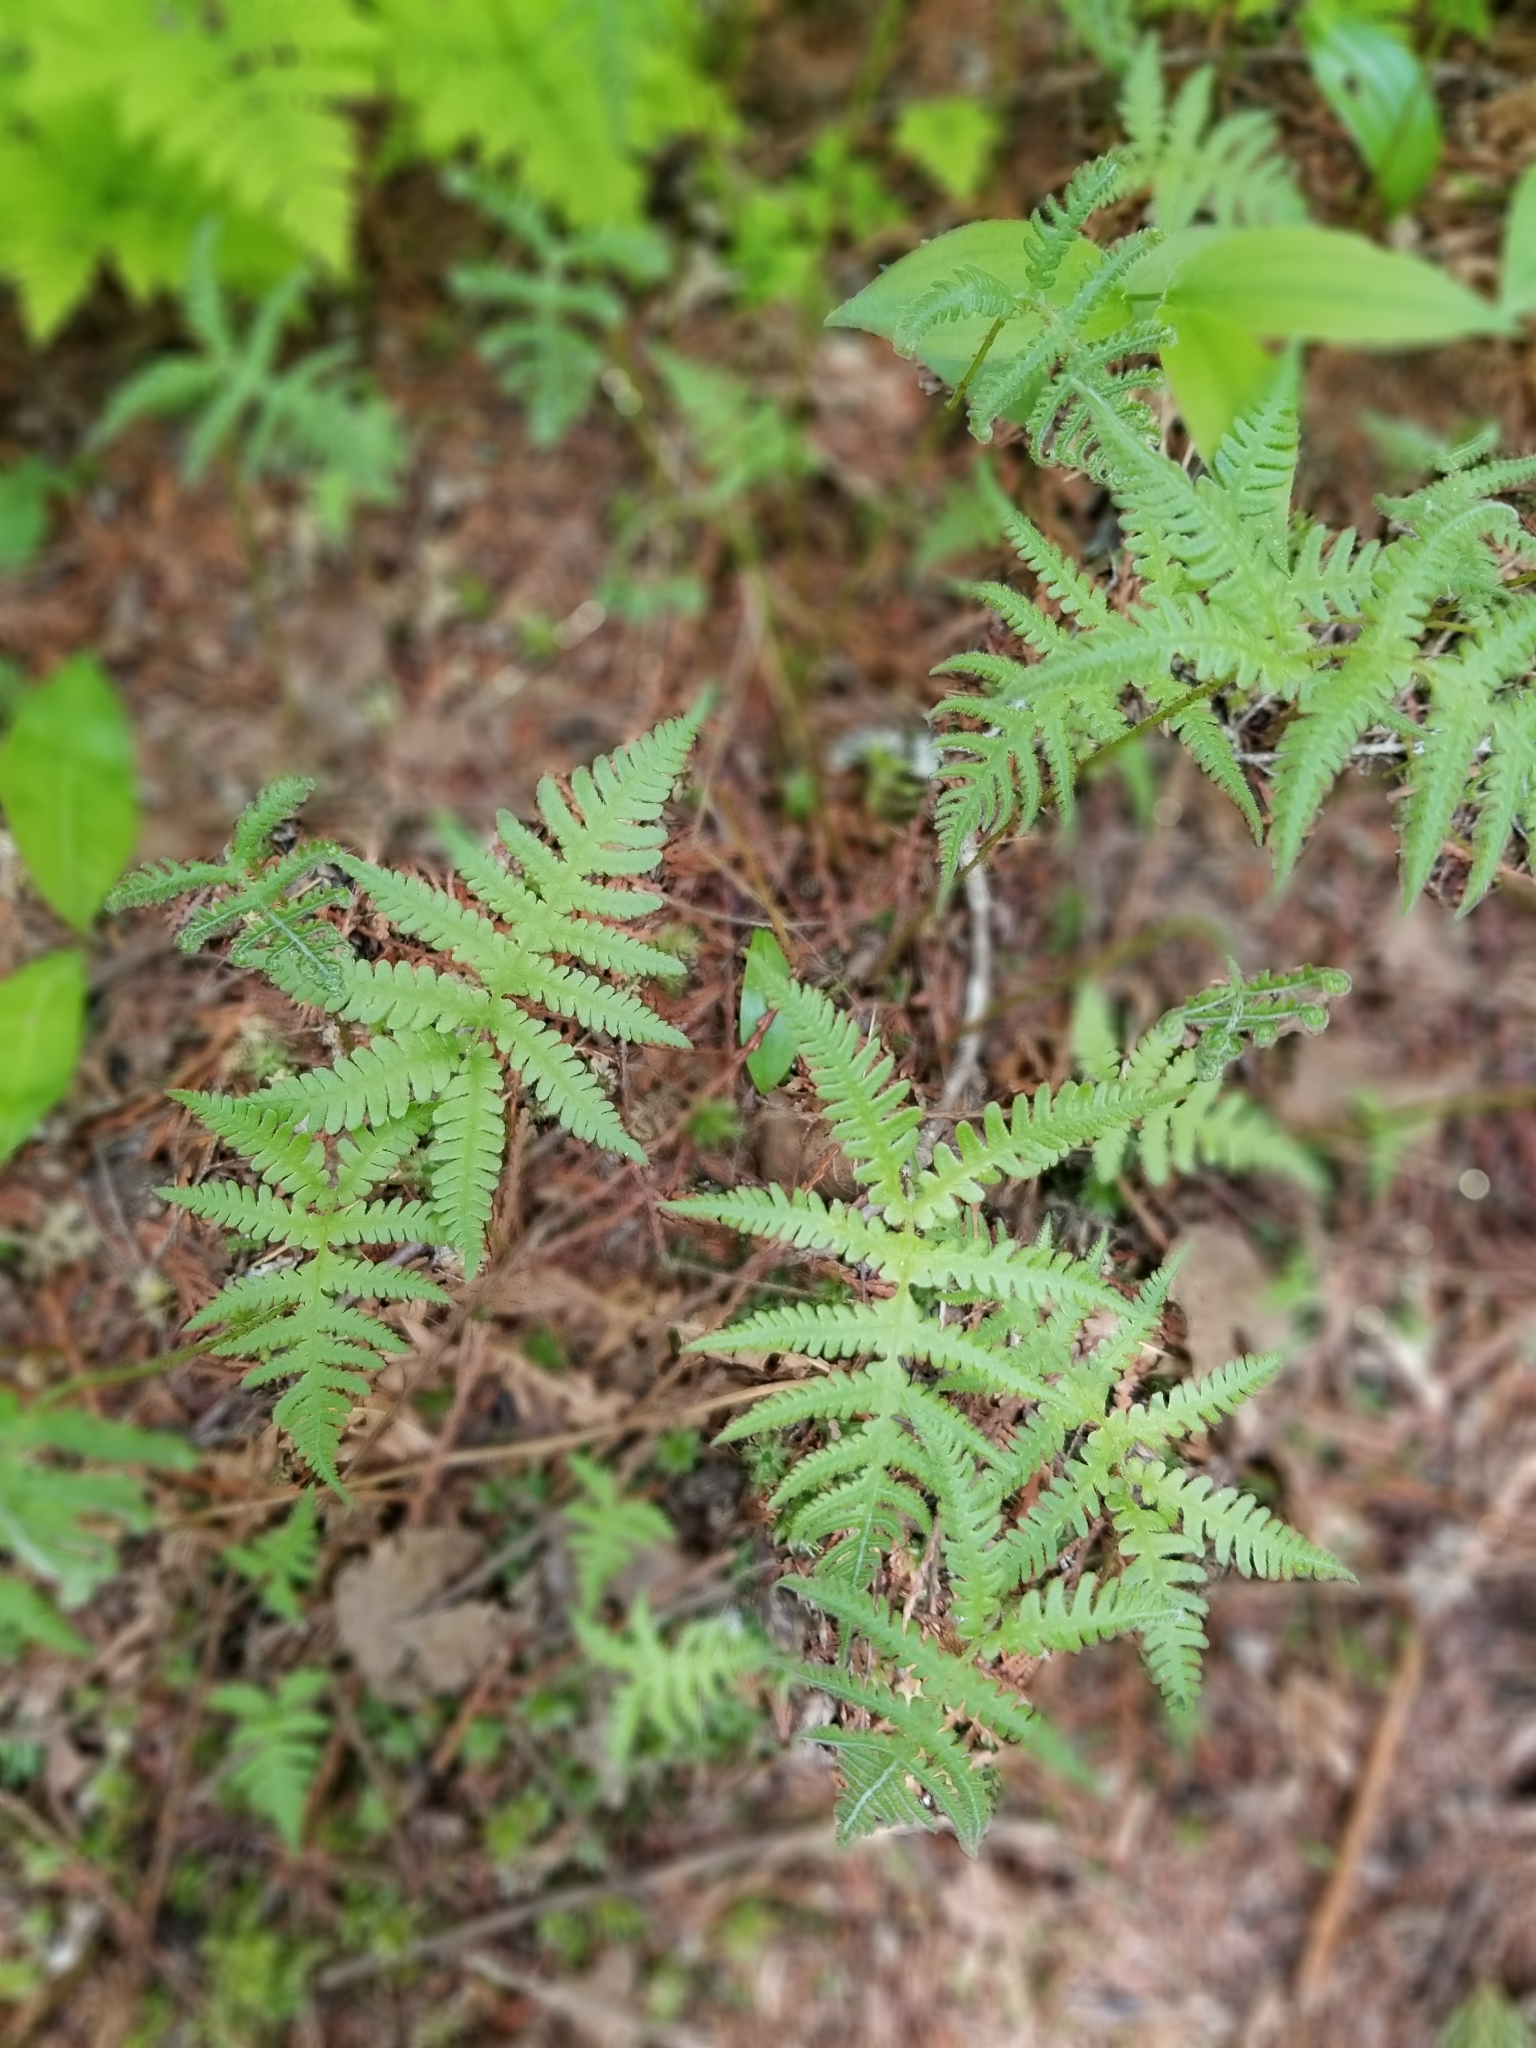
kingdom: Plantae
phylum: Tracheophyta
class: Polypodiopsida
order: Polypodiales
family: Thelypteridaceae
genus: Phegopteris
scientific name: Phegopteris connectilis
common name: Beech fern
